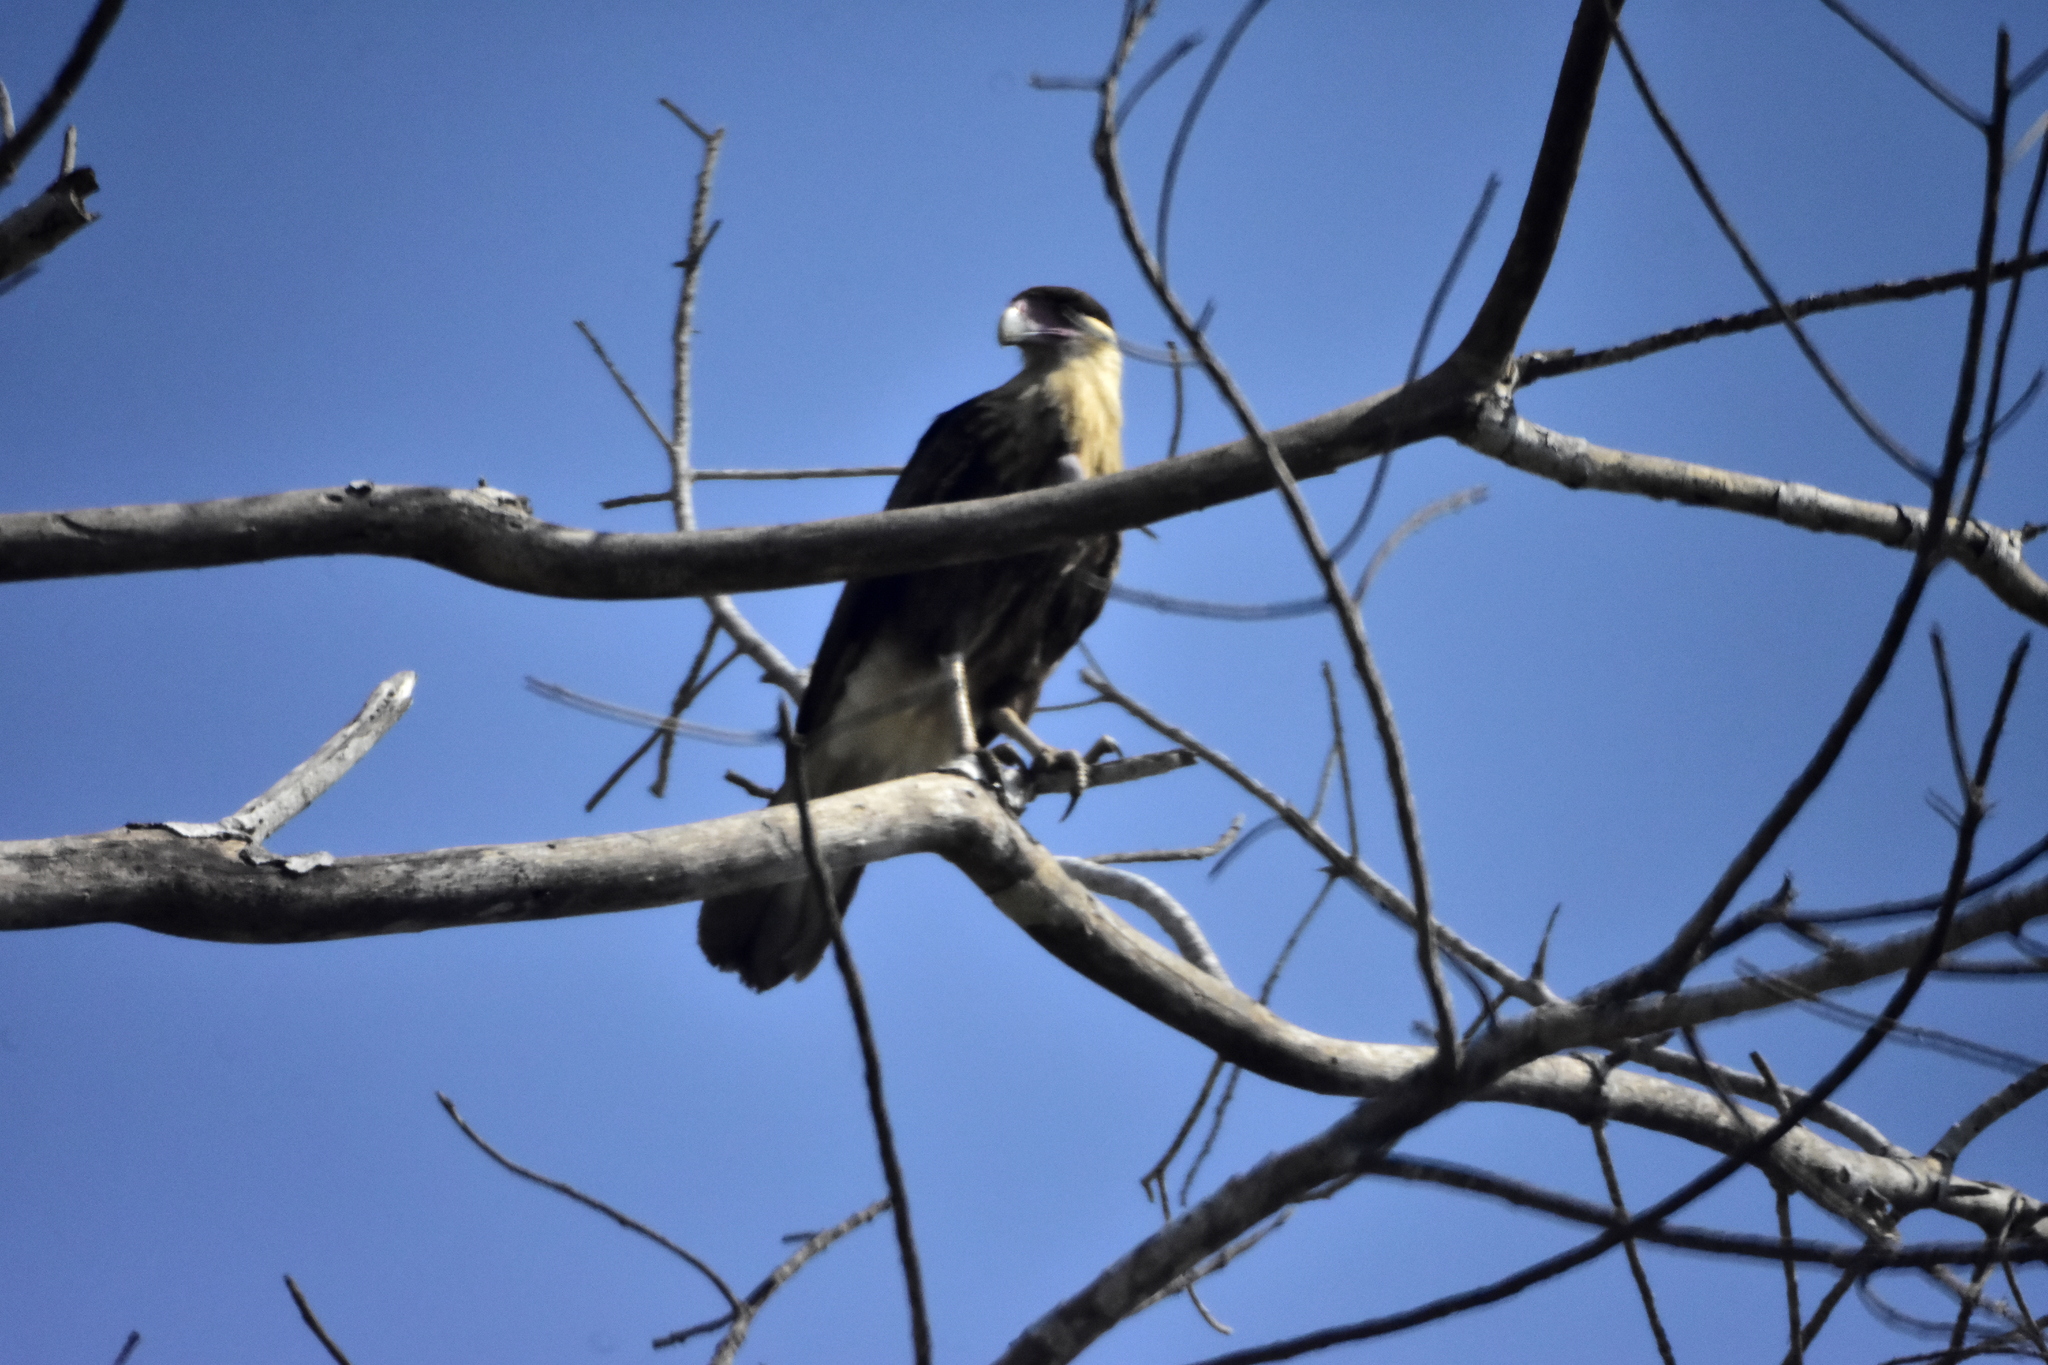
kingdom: Animalia
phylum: Chordata
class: Aves
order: Falconiformes
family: Falconidae
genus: Caracara
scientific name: Caracara plancus
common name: Southern caracara
